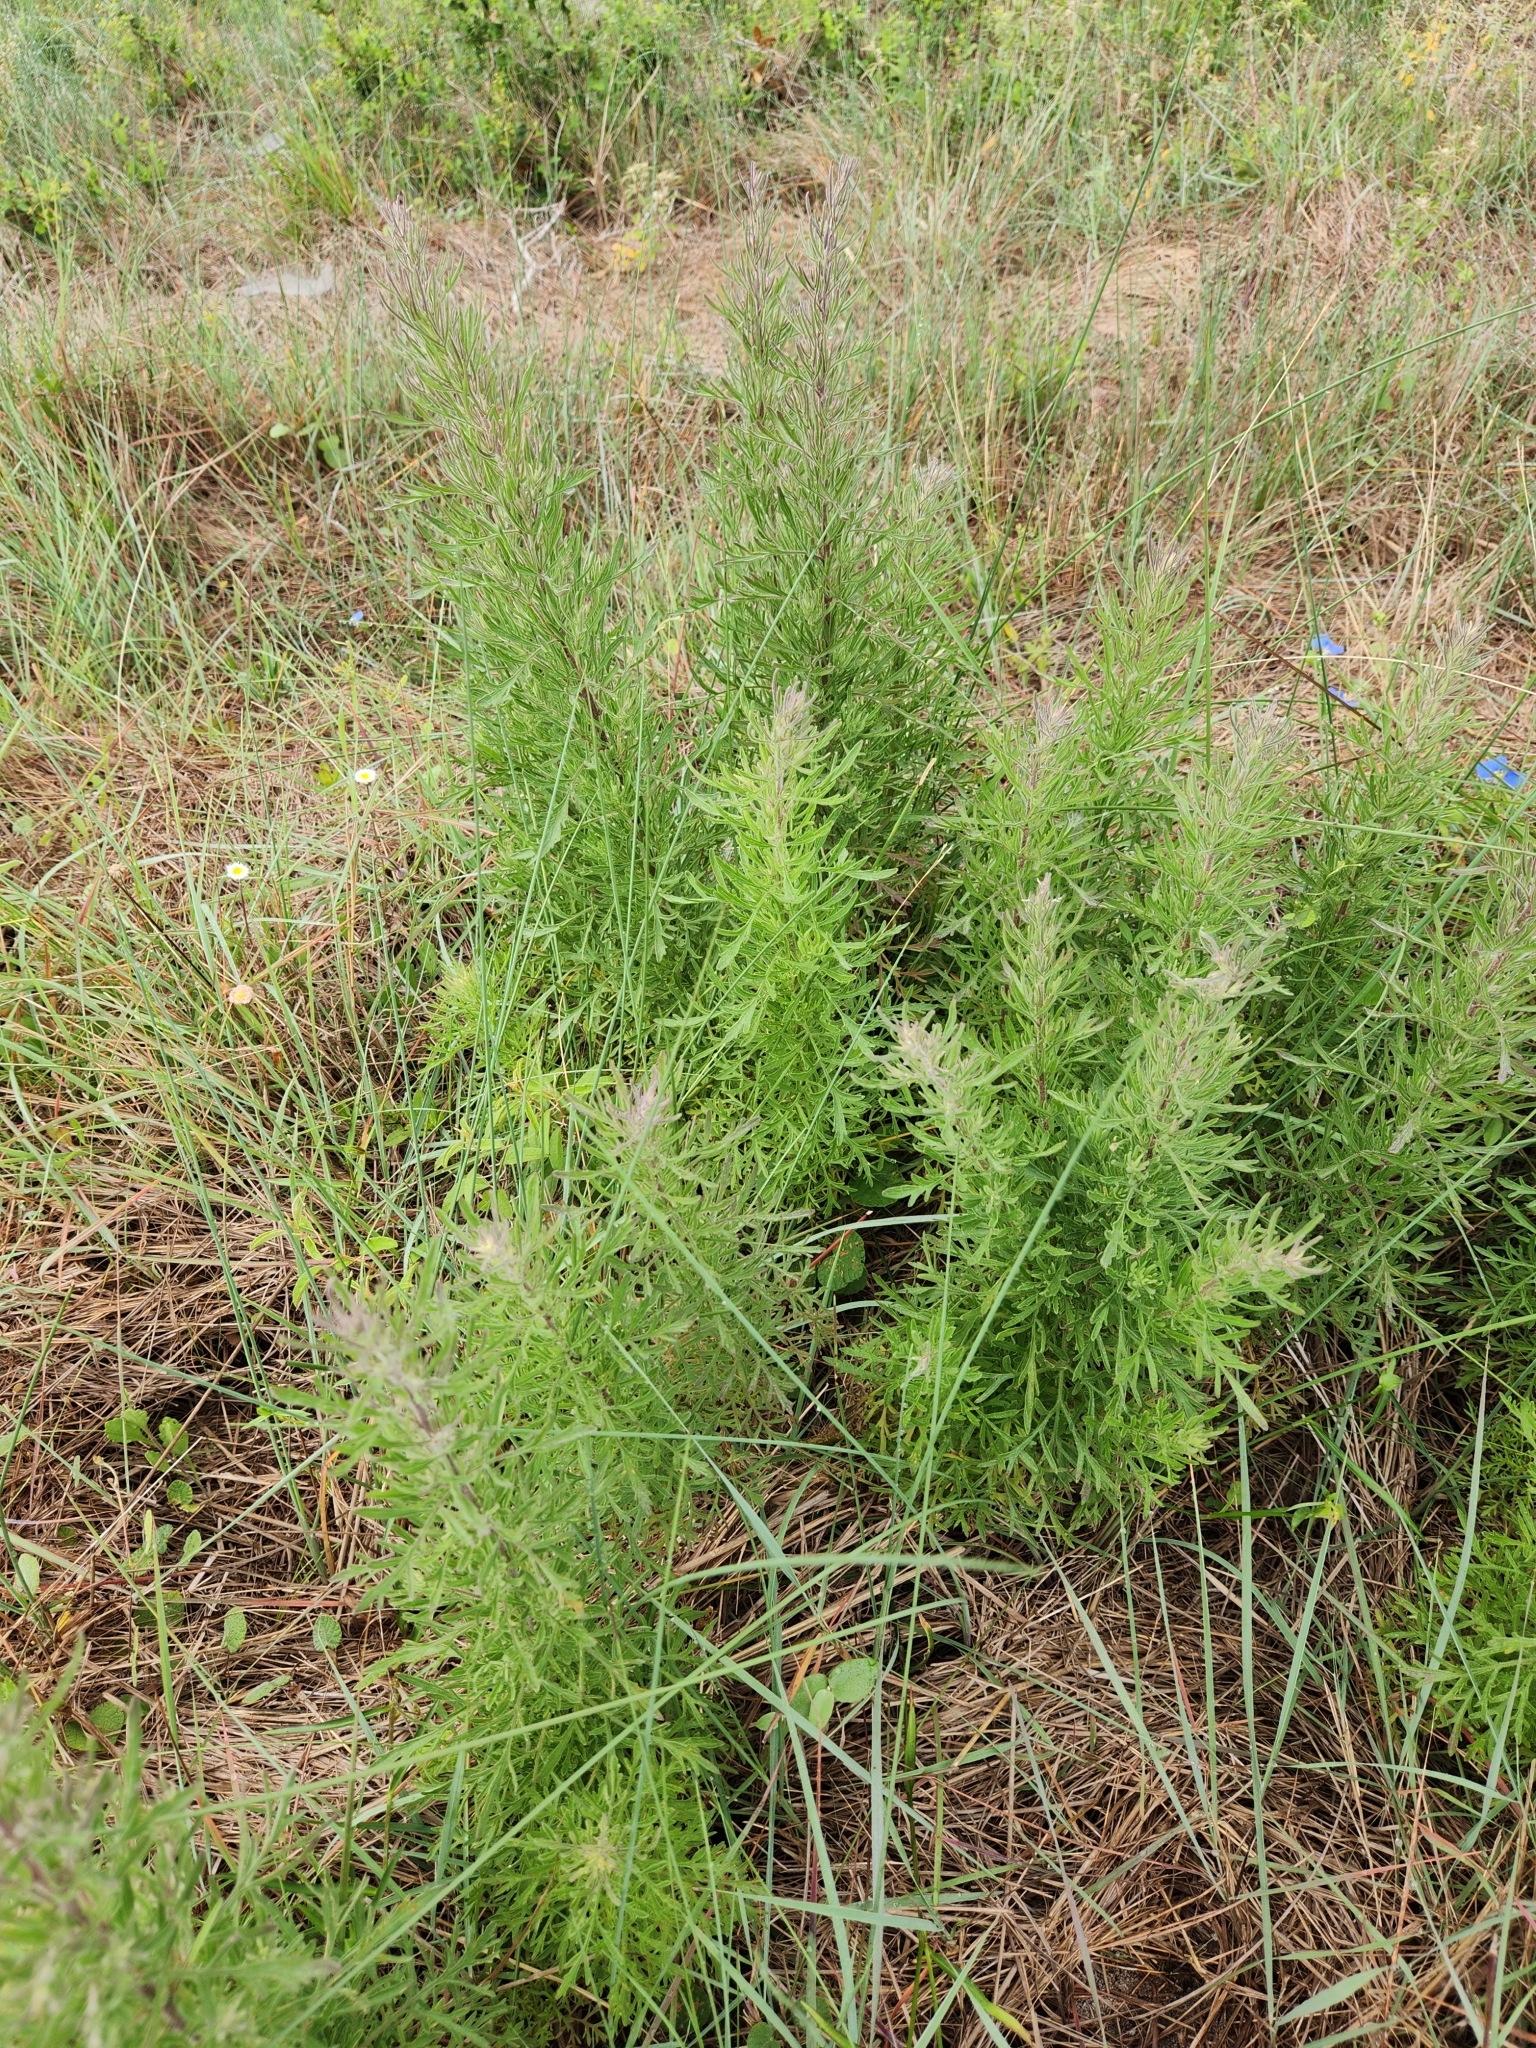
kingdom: Plantae
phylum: Tracheophyta
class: Magnoliopsida
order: Asterales
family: Asteraceae
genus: Eupatorium
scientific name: Eupatorium compositifolium
